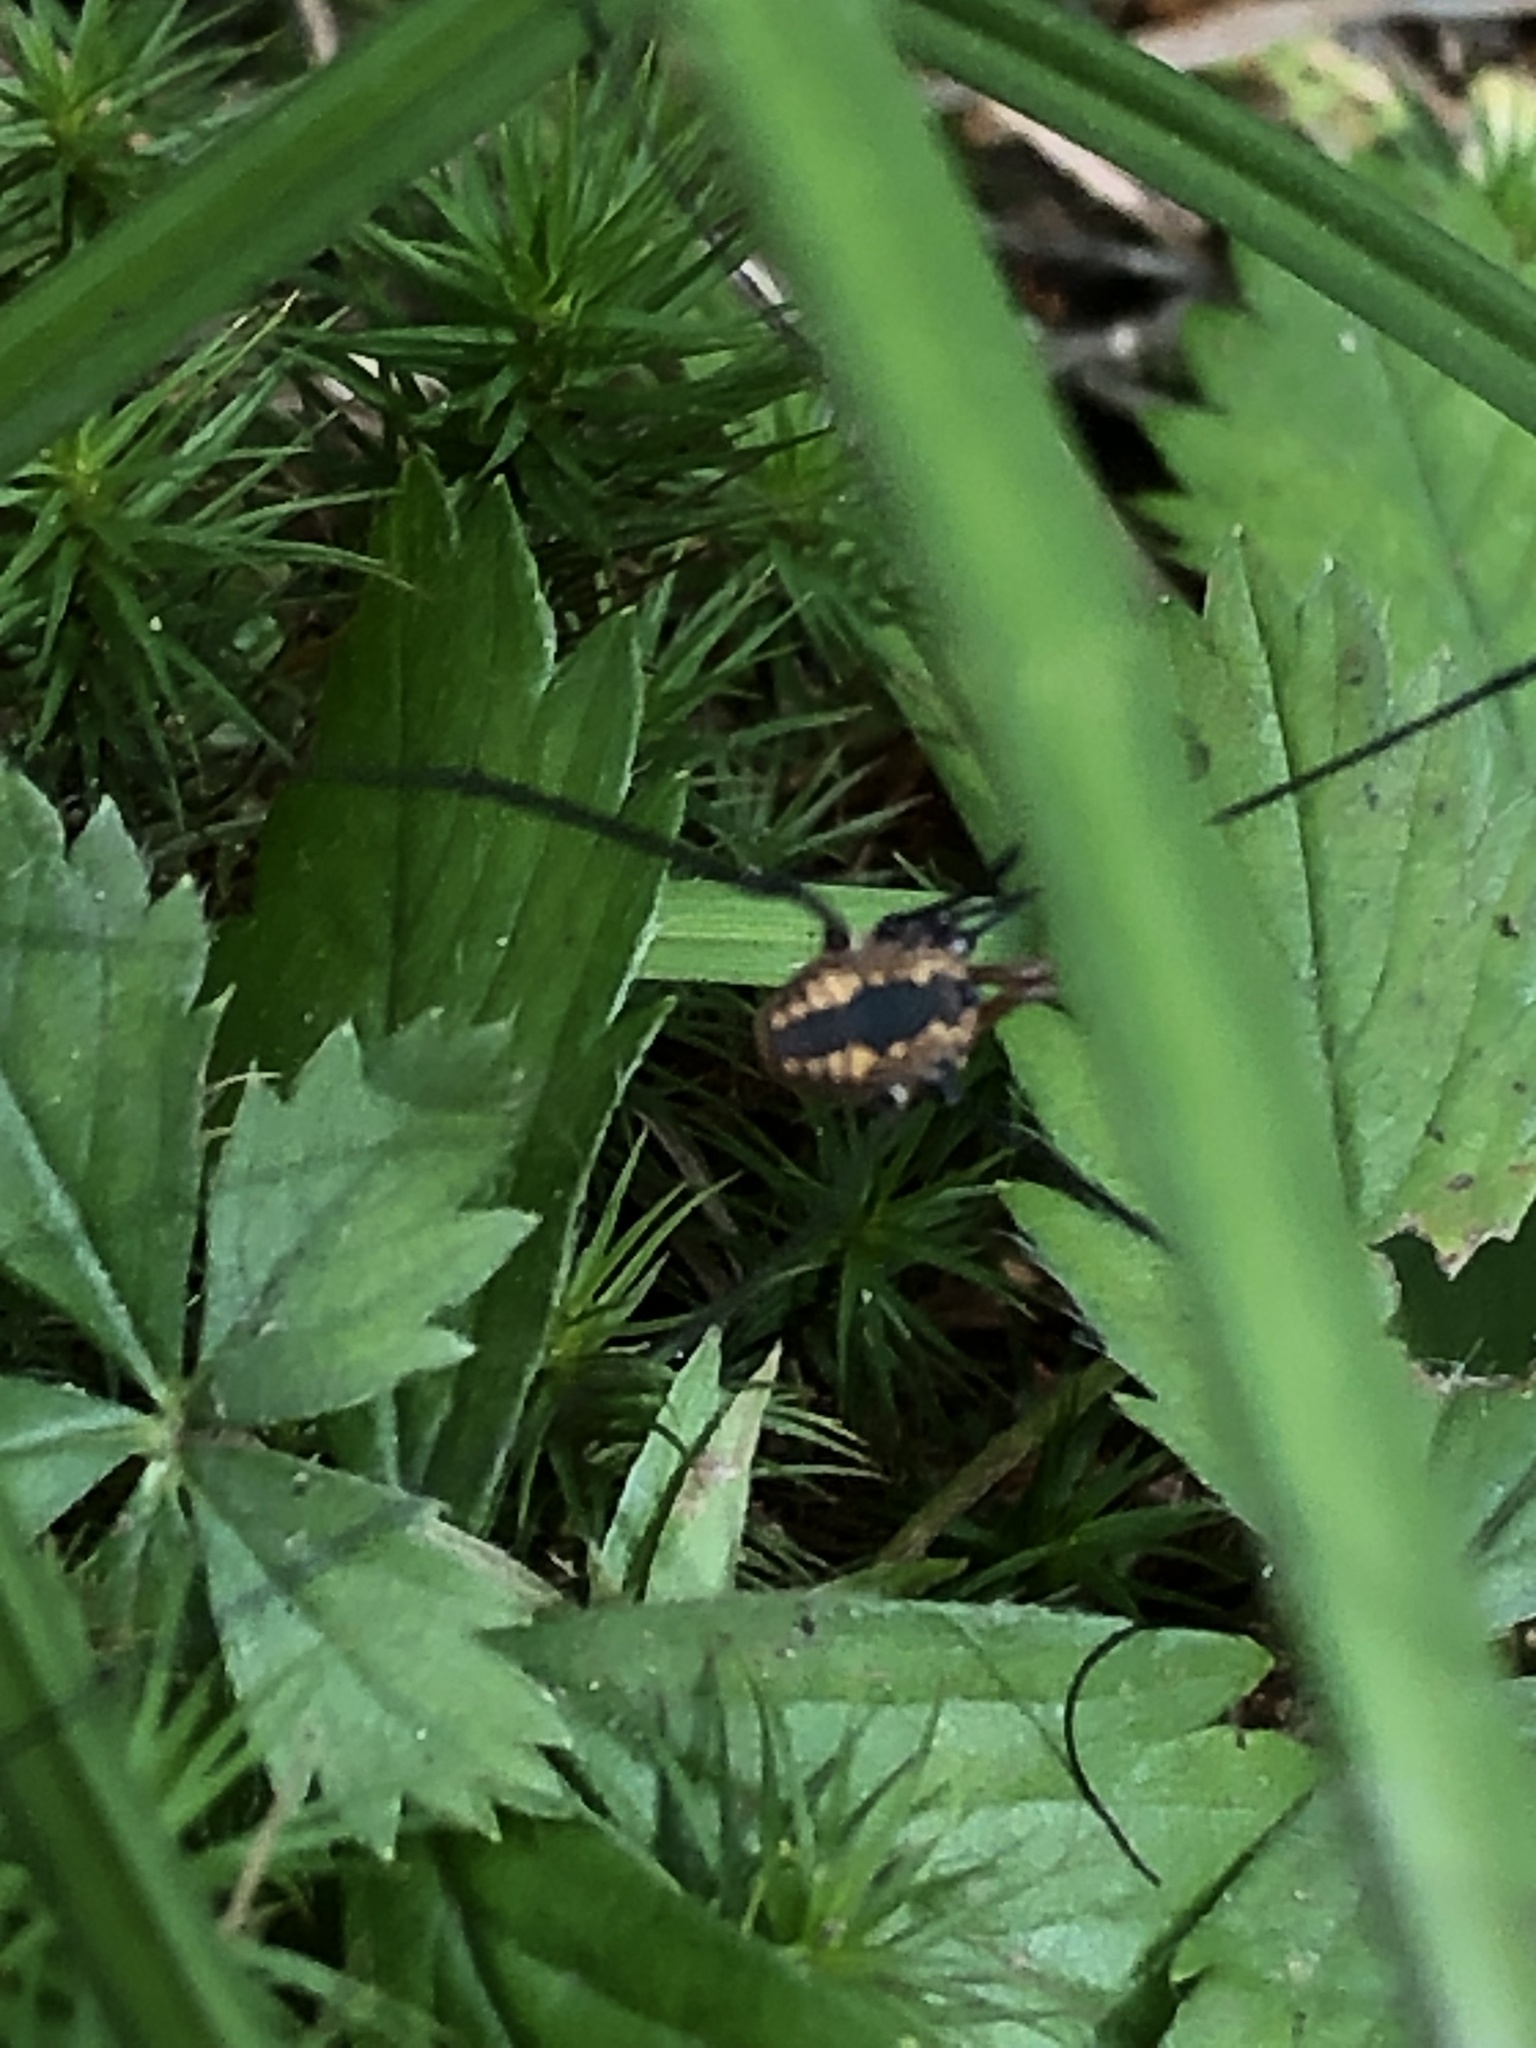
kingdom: Animalia
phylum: Arthropoda
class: Arachnida
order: Opiliones
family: Sclerosomatidae
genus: Leiobunum
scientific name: Leiobunum vittatum
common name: Eastern harvestman
